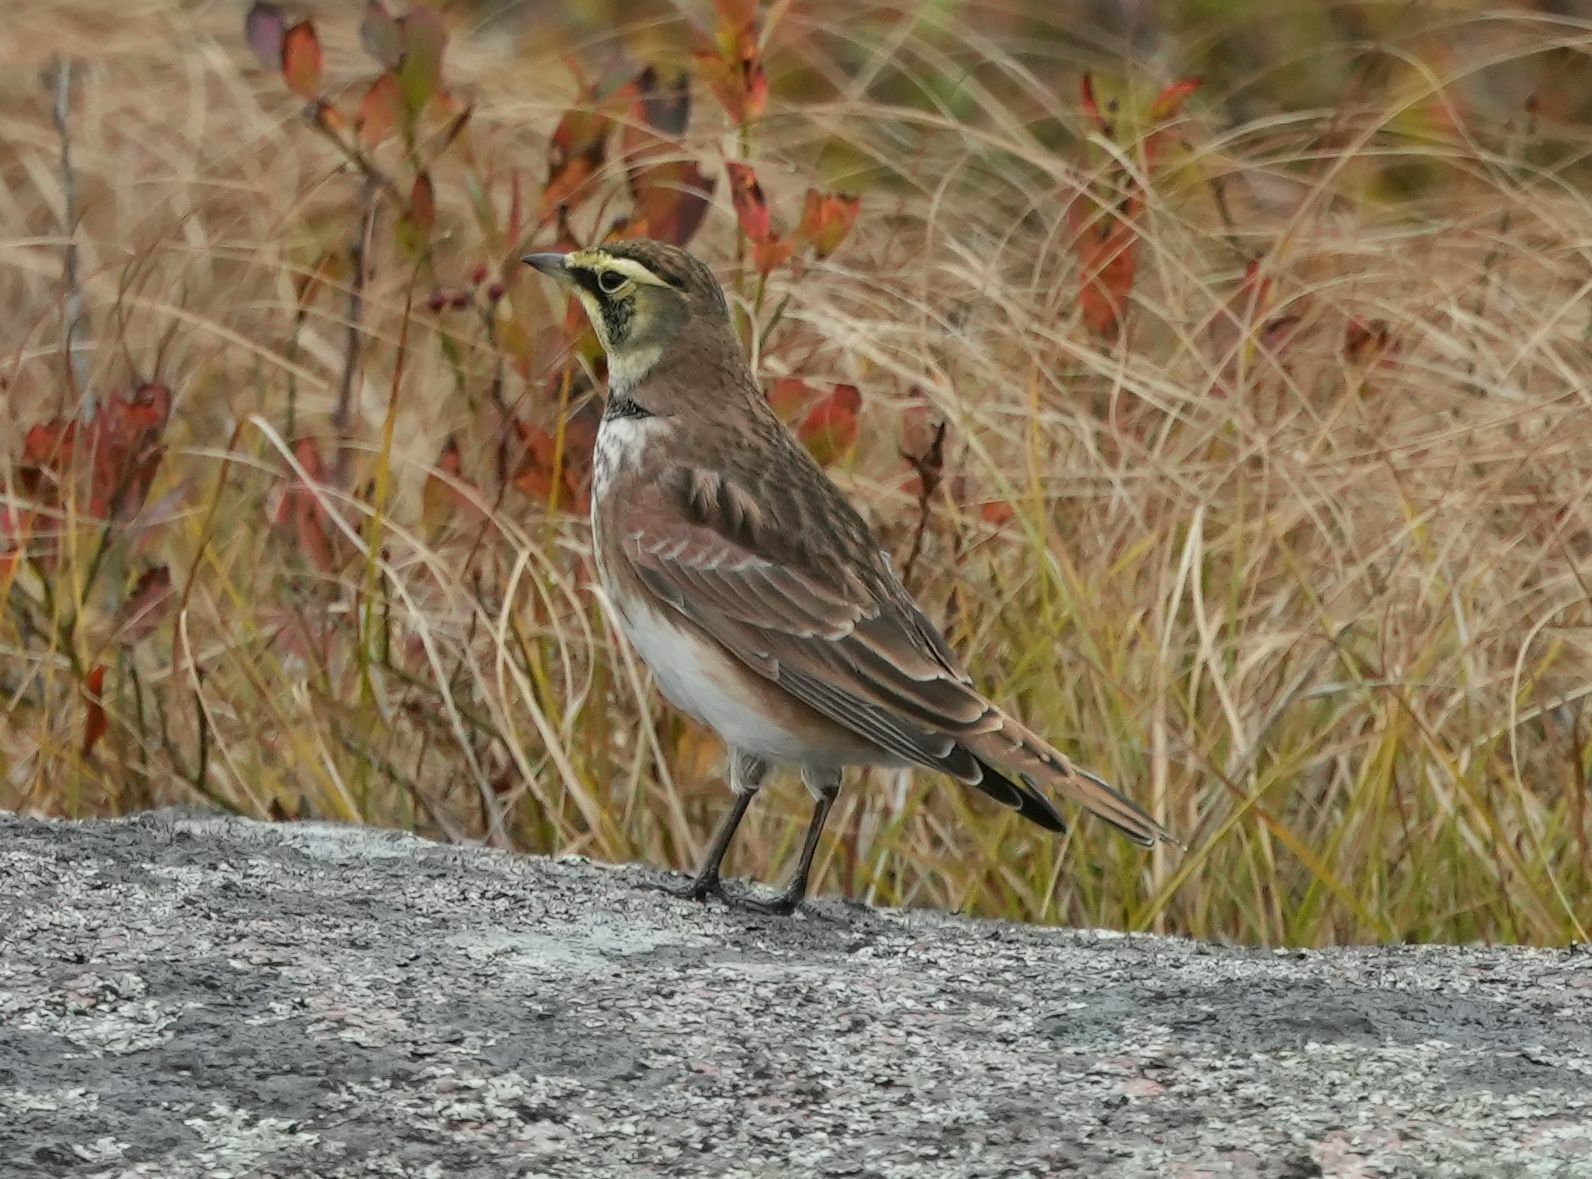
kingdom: Animalia
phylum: Chordata
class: Aves
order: Passeriformes
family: Alaudidae
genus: Eremophila
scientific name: Eremophila alpestris
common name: Horned lark
